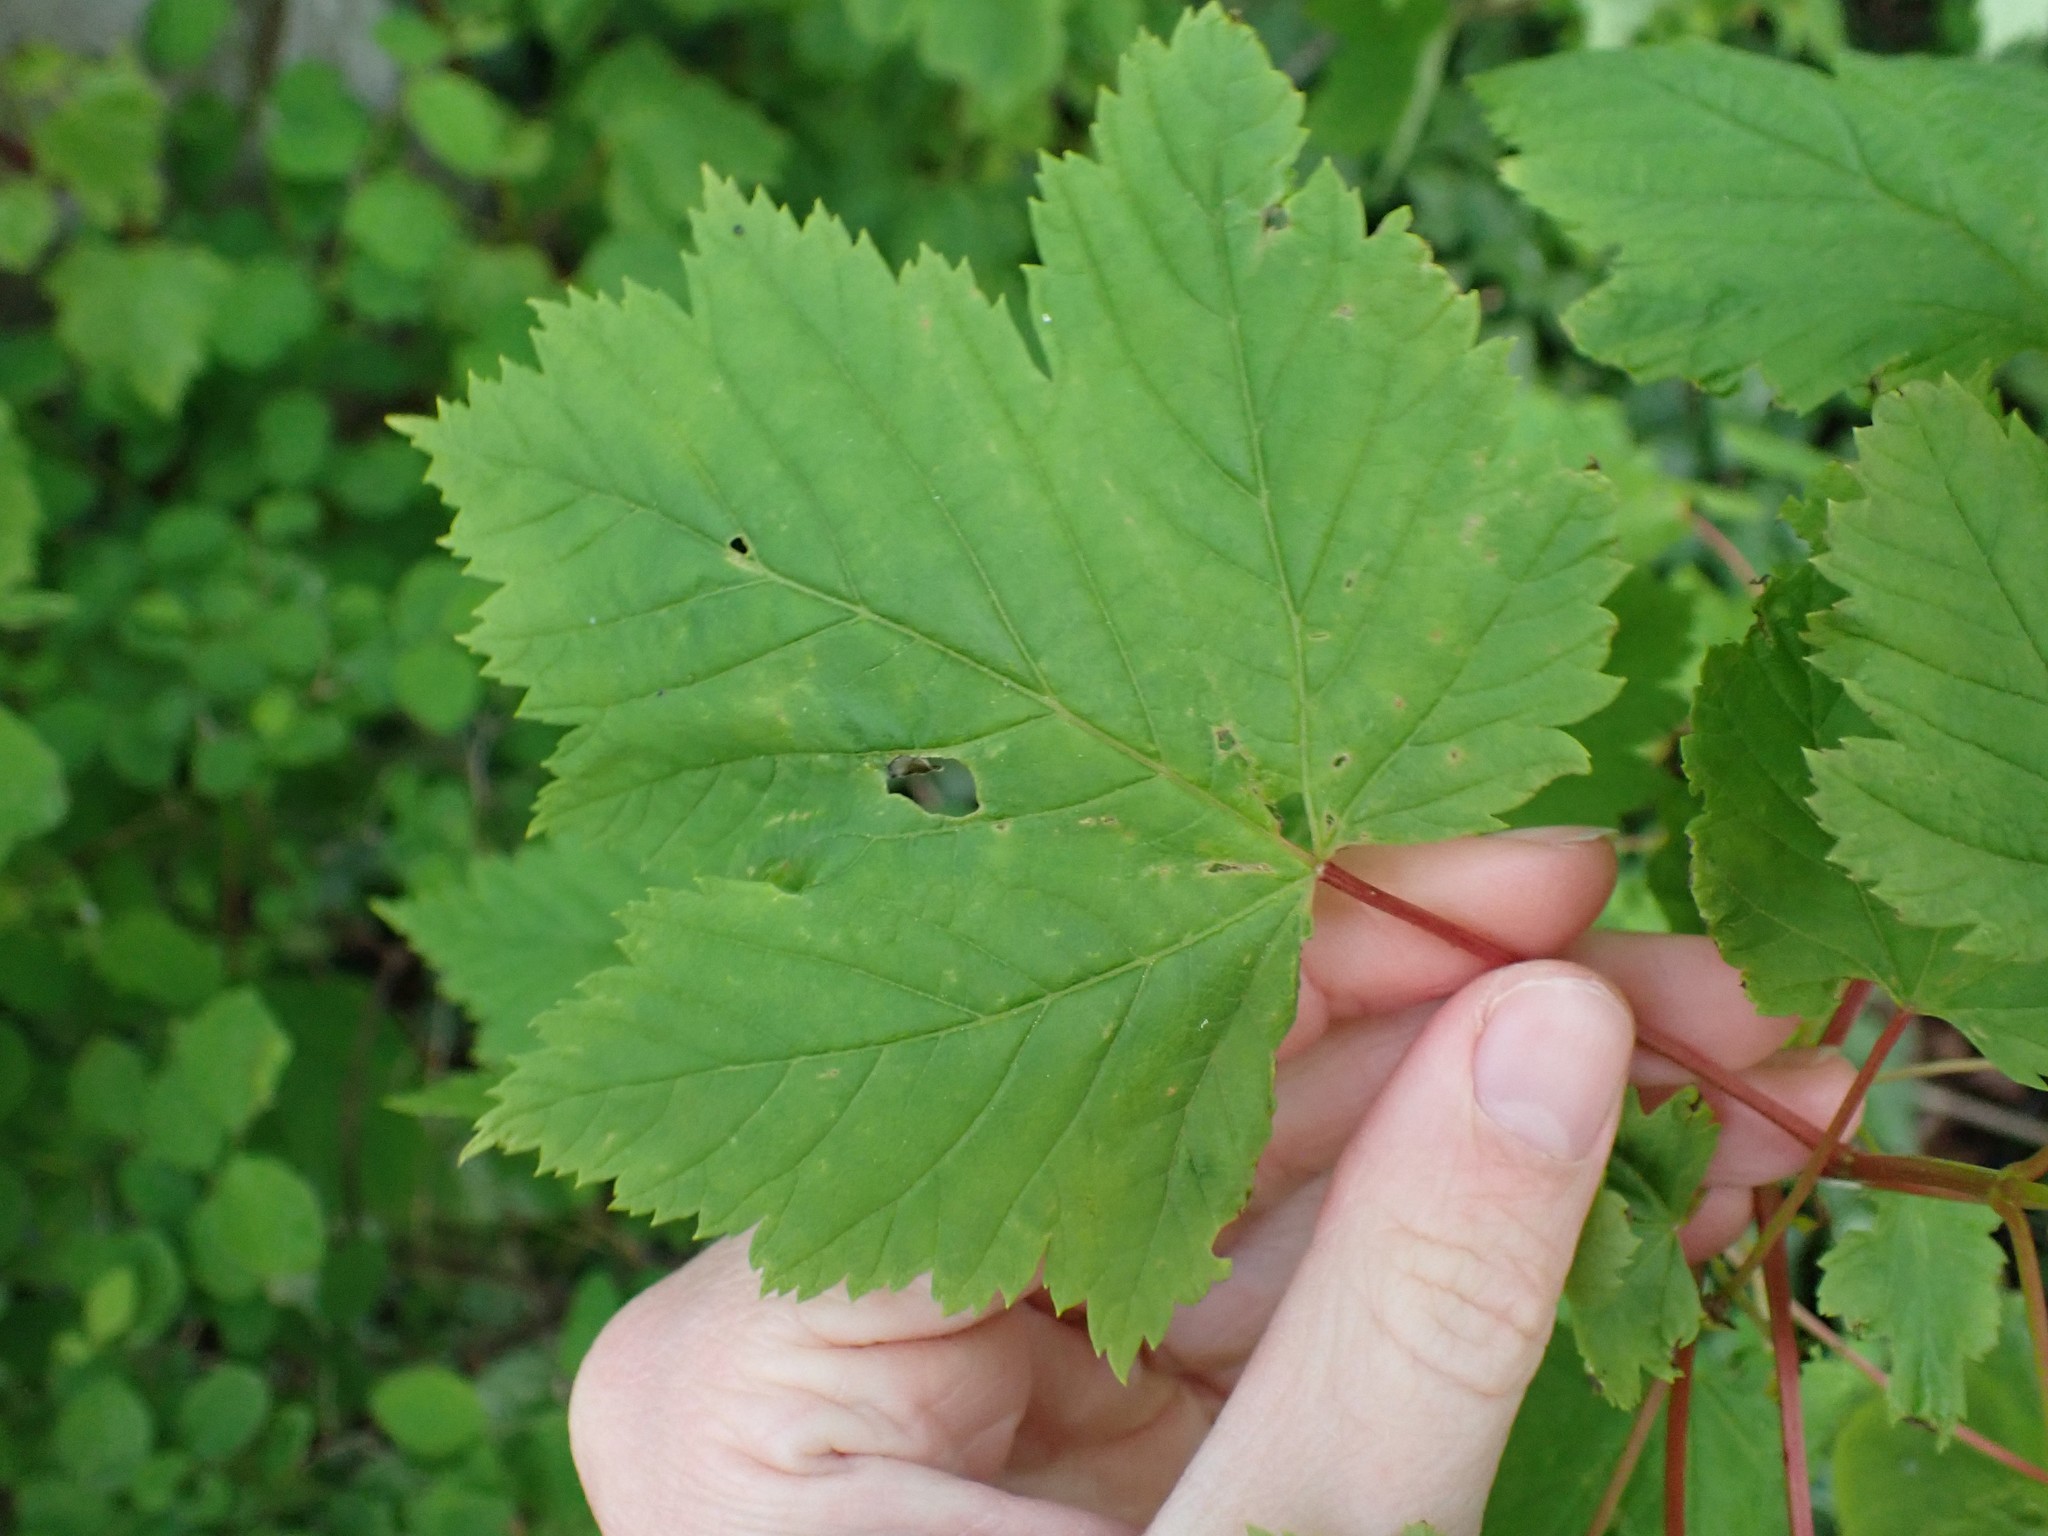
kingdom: Plantae
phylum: Tracheophyta
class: Magnoliopsida
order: Sapindales
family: Sapindaceae
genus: Acer
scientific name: Acer glabrum
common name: Rocky mountain maple
